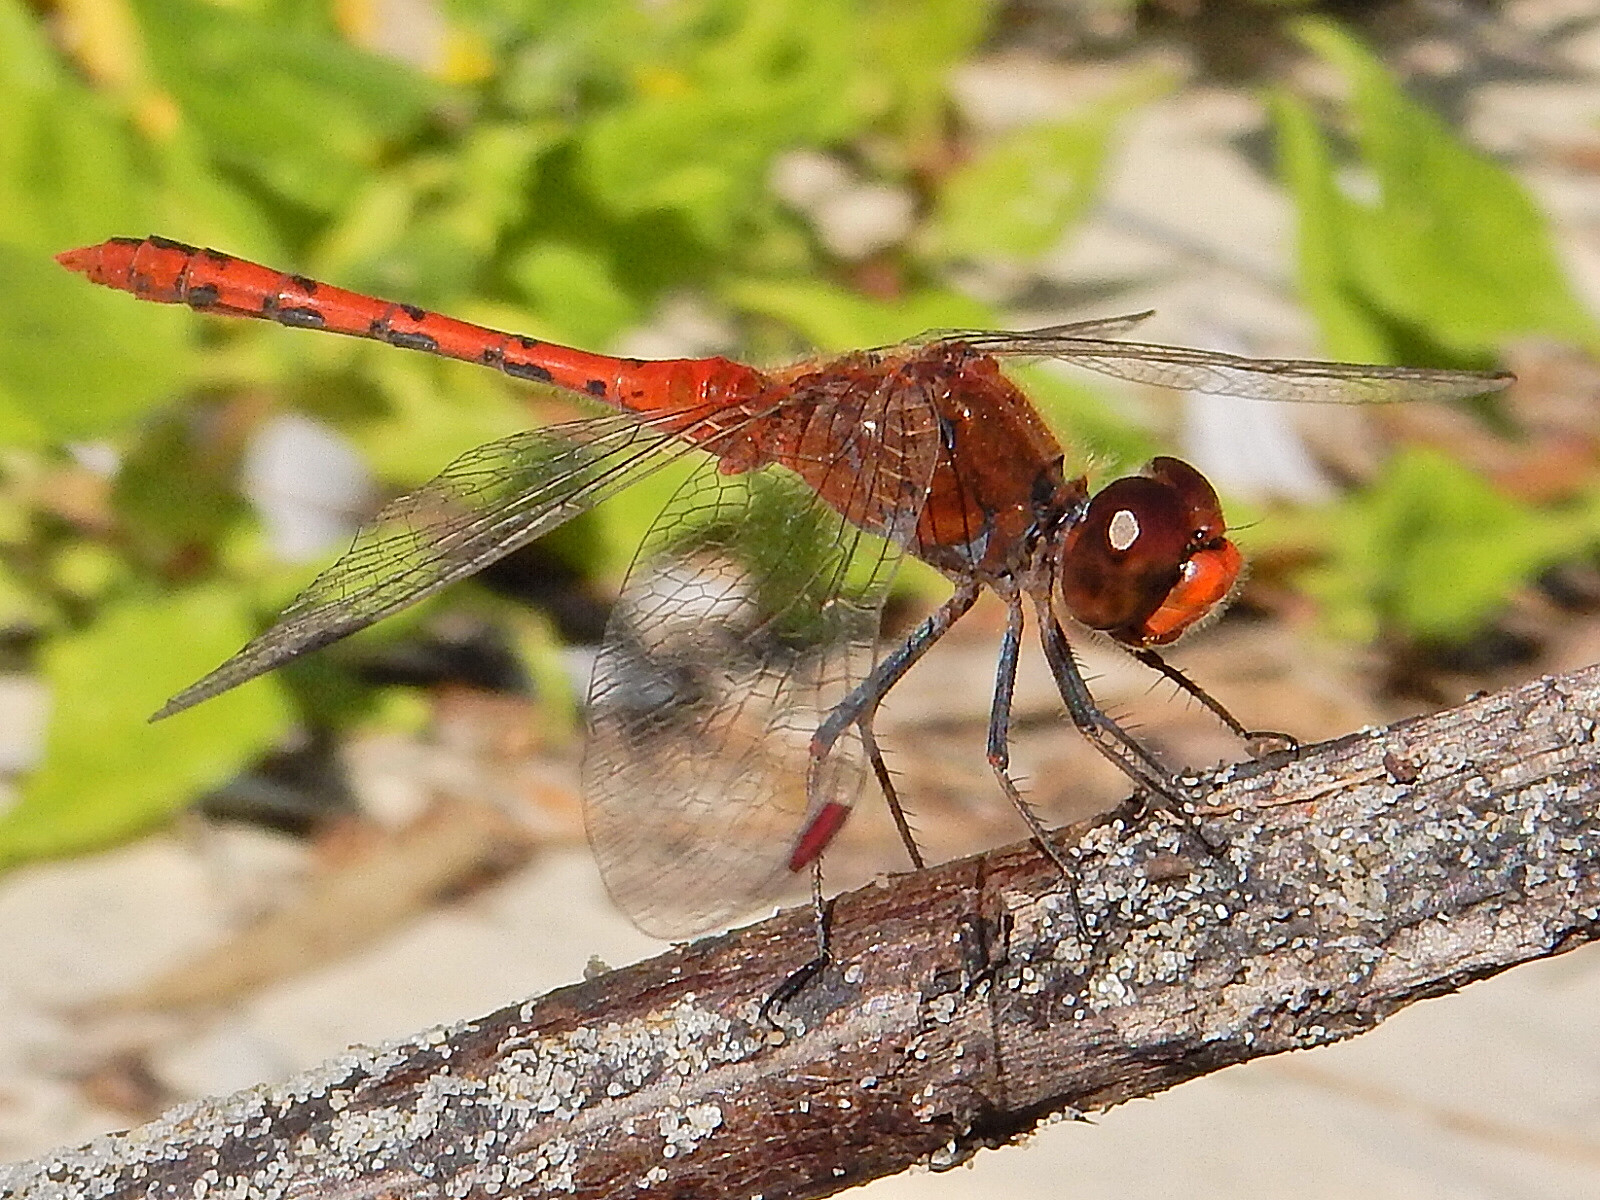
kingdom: Animalia
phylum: Arthropoda
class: Insecta
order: Odonata
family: Libellulidae
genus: Diplacodes
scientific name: Diplacodes bipunctata
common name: Red percher dragonfly
